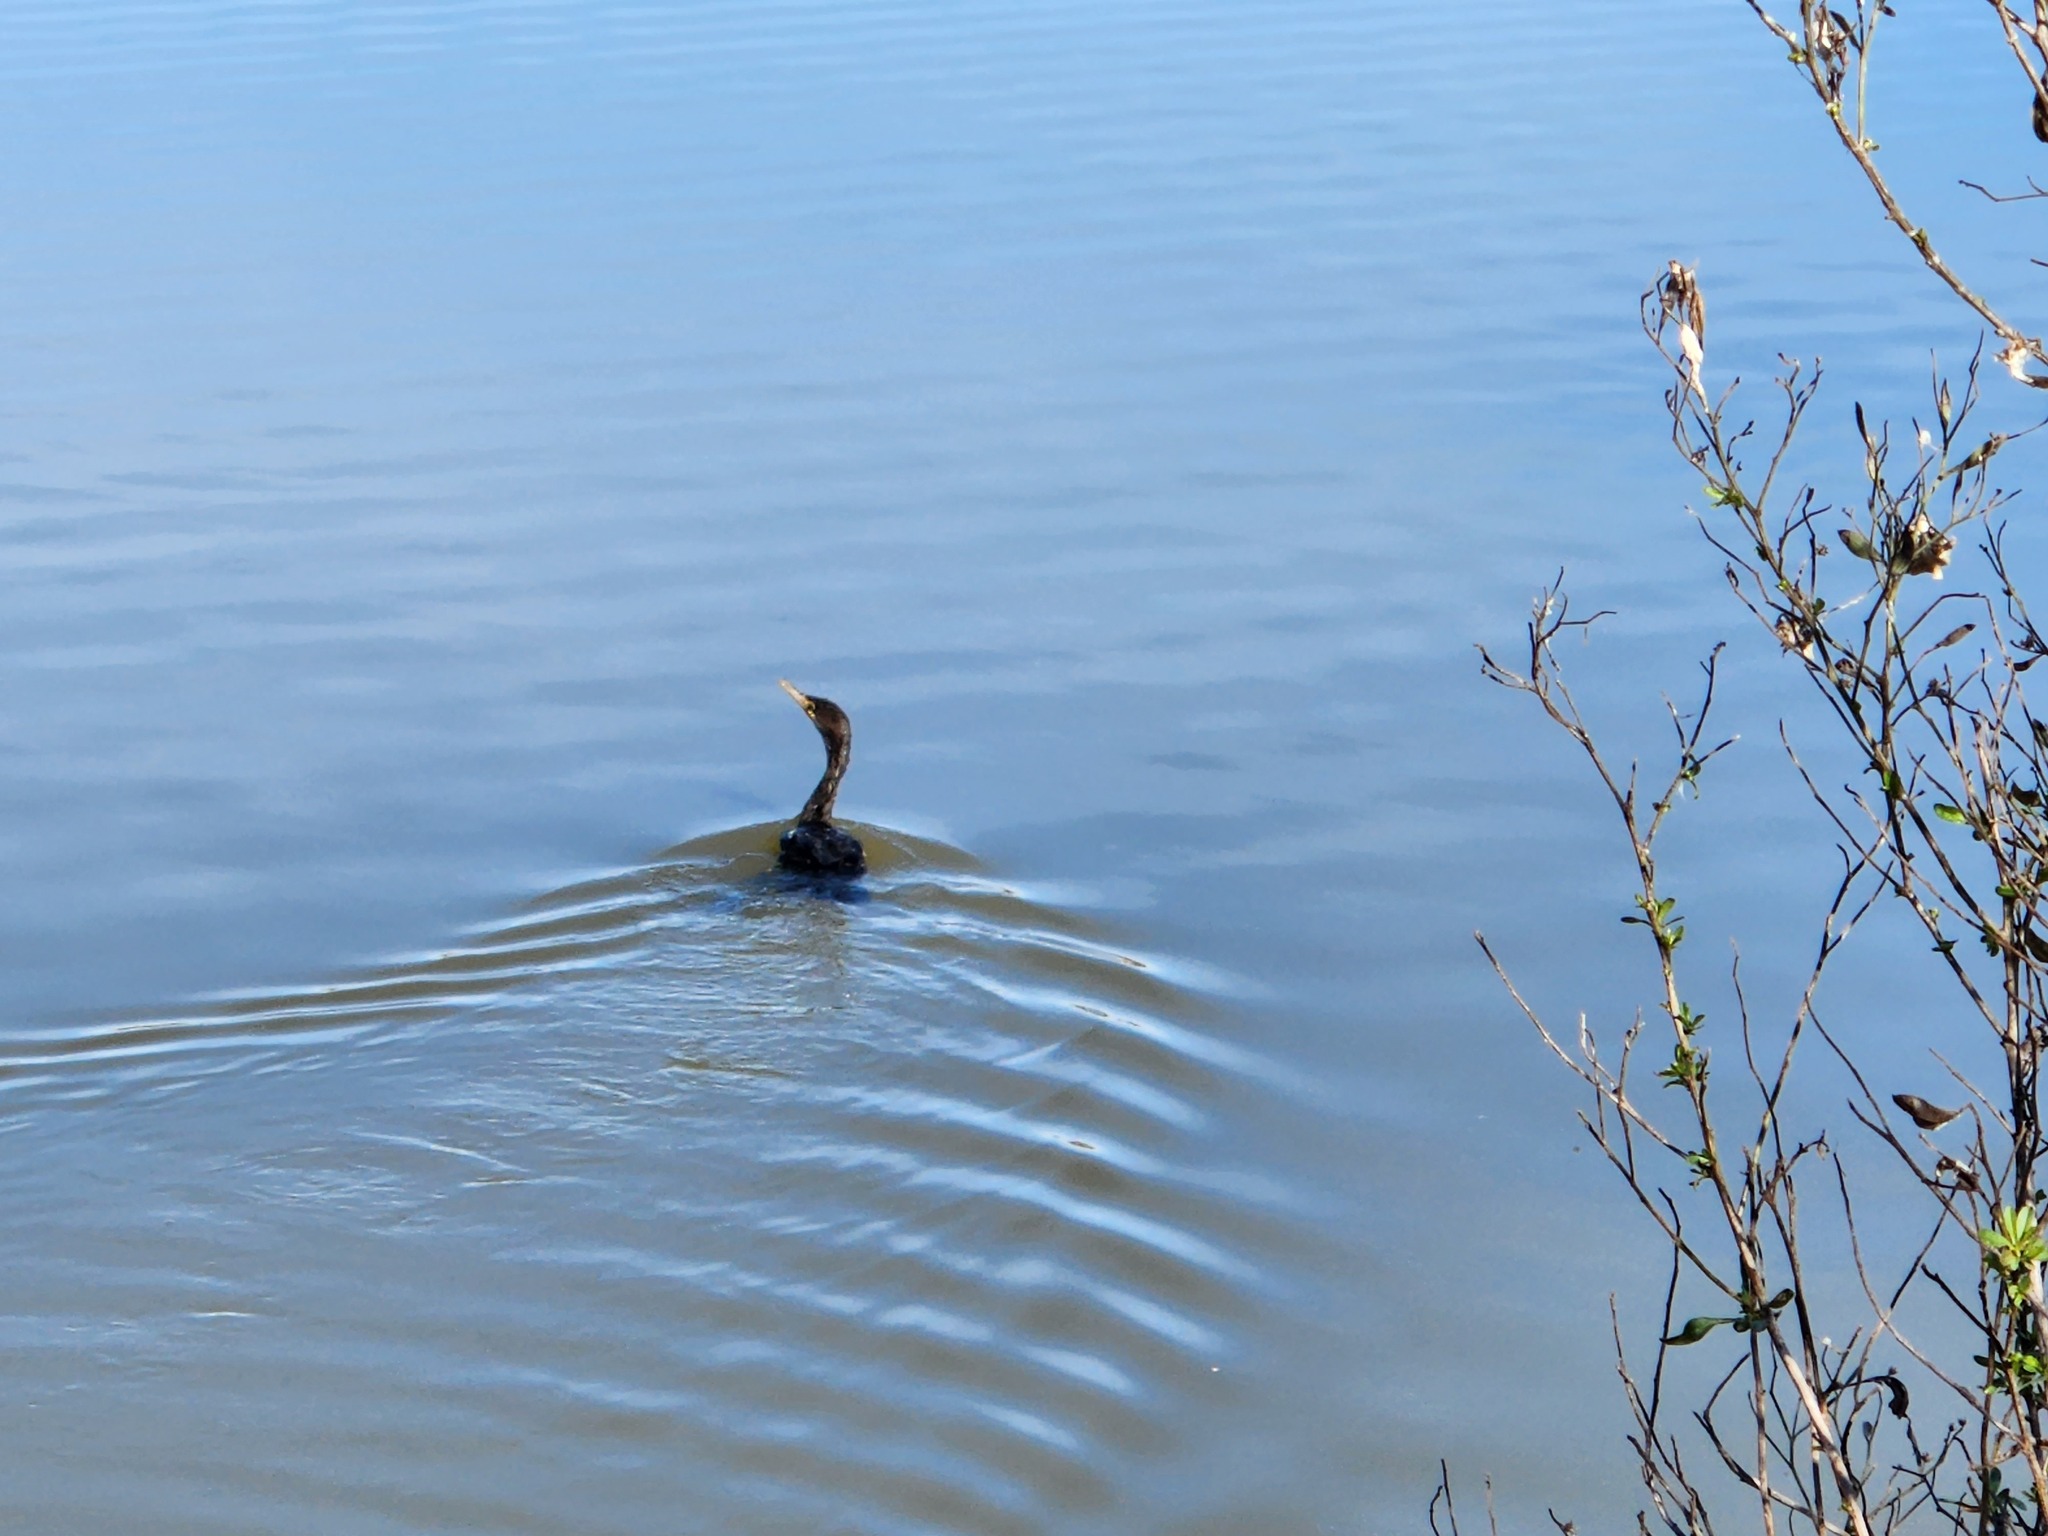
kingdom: Animalia
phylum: Chordata
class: Aves
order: Suliformes
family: Phalacrocoracidae
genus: Phalacrocorax
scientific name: Phalacrocorax auritus
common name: Double-crested cormorant
